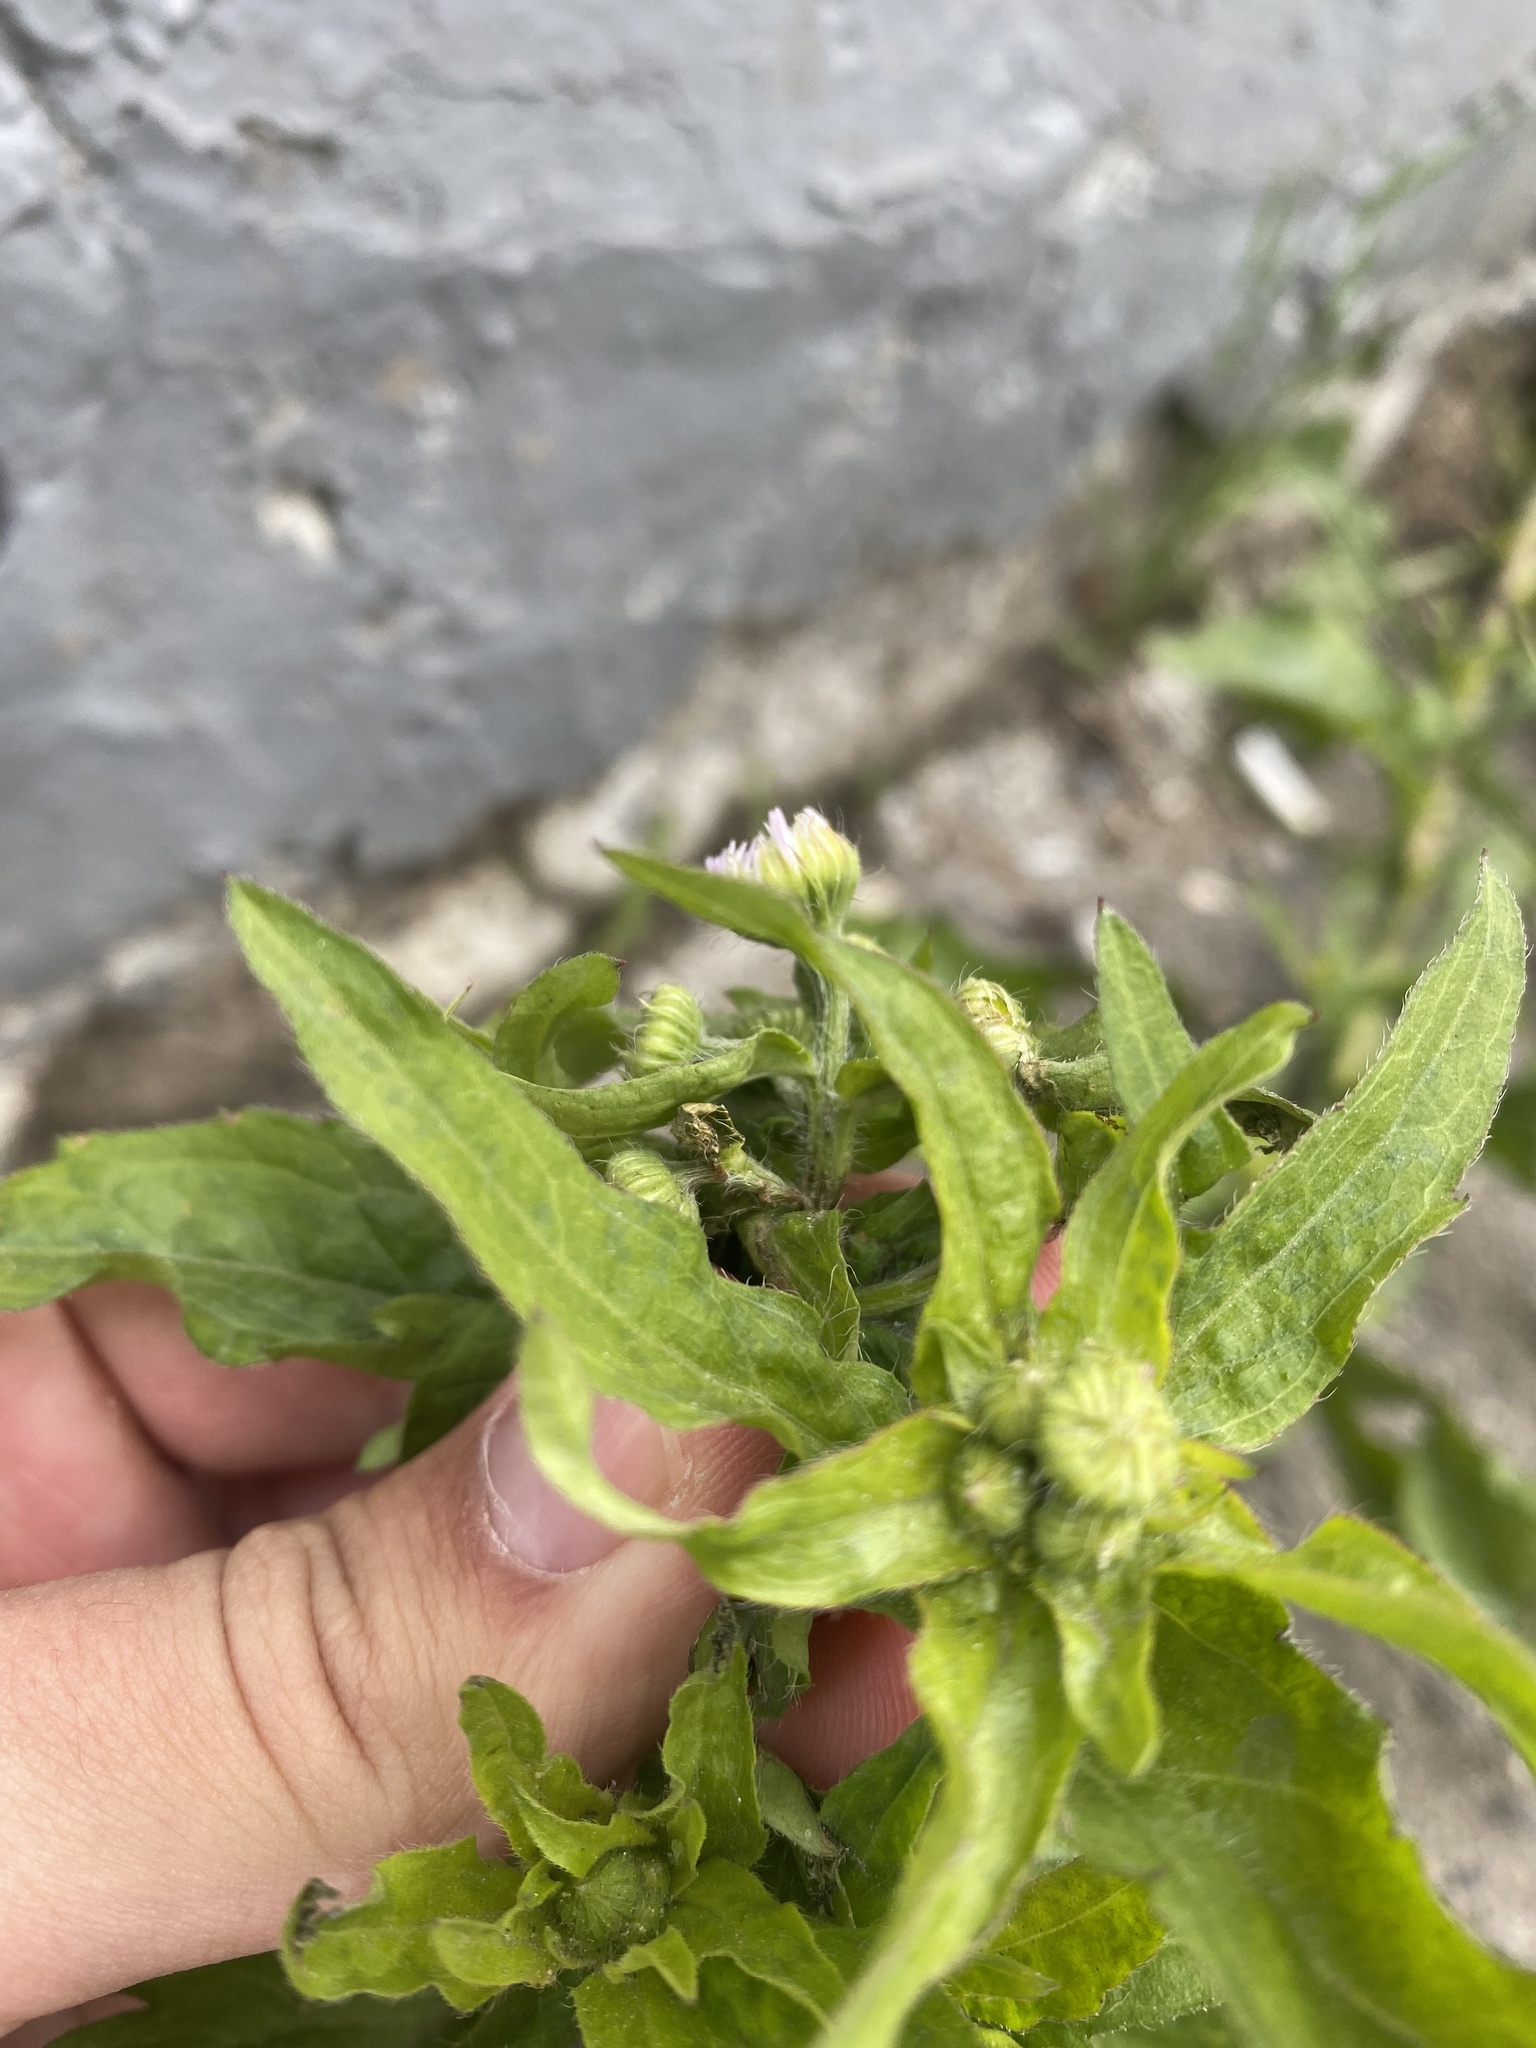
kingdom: Plantae
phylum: Tracheophyta
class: Magnoliopsida
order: Asterales
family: Asteraceae
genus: Erigeron
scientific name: Erigeron annuus
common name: Tall fleabane
